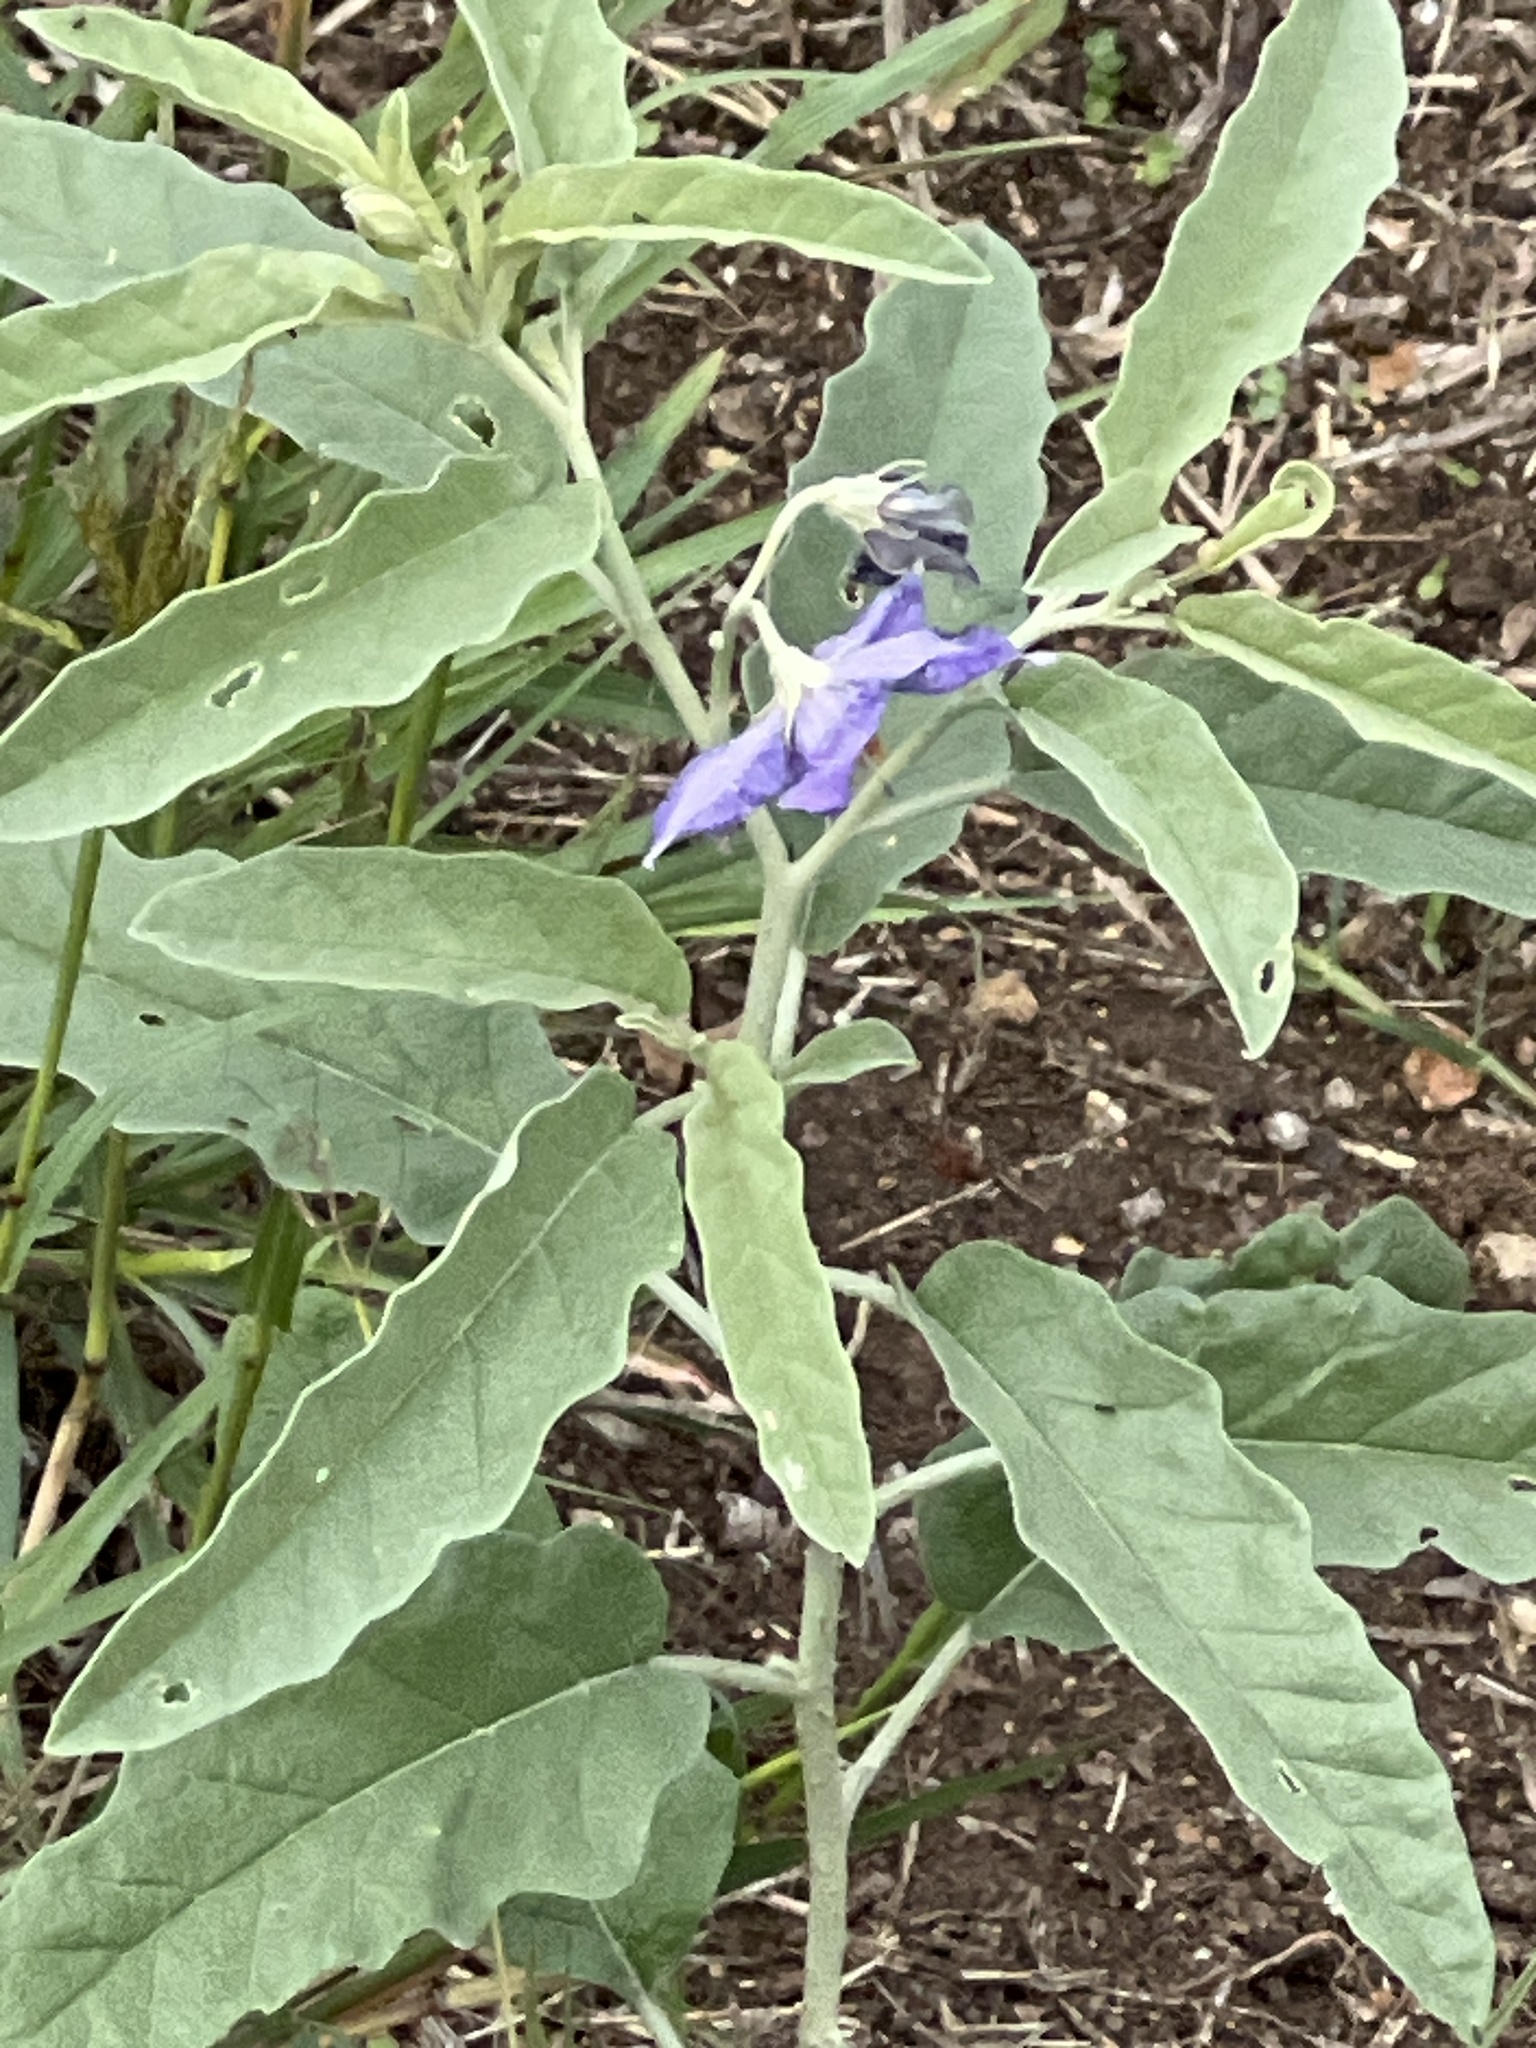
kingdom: Plantae
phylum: Tracheophyta
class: Magnoliopsida
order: Solanales
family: Solanaceae
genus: Solanum
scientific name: Solanum elaeagnifolium
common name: Silverleaf nightshade
